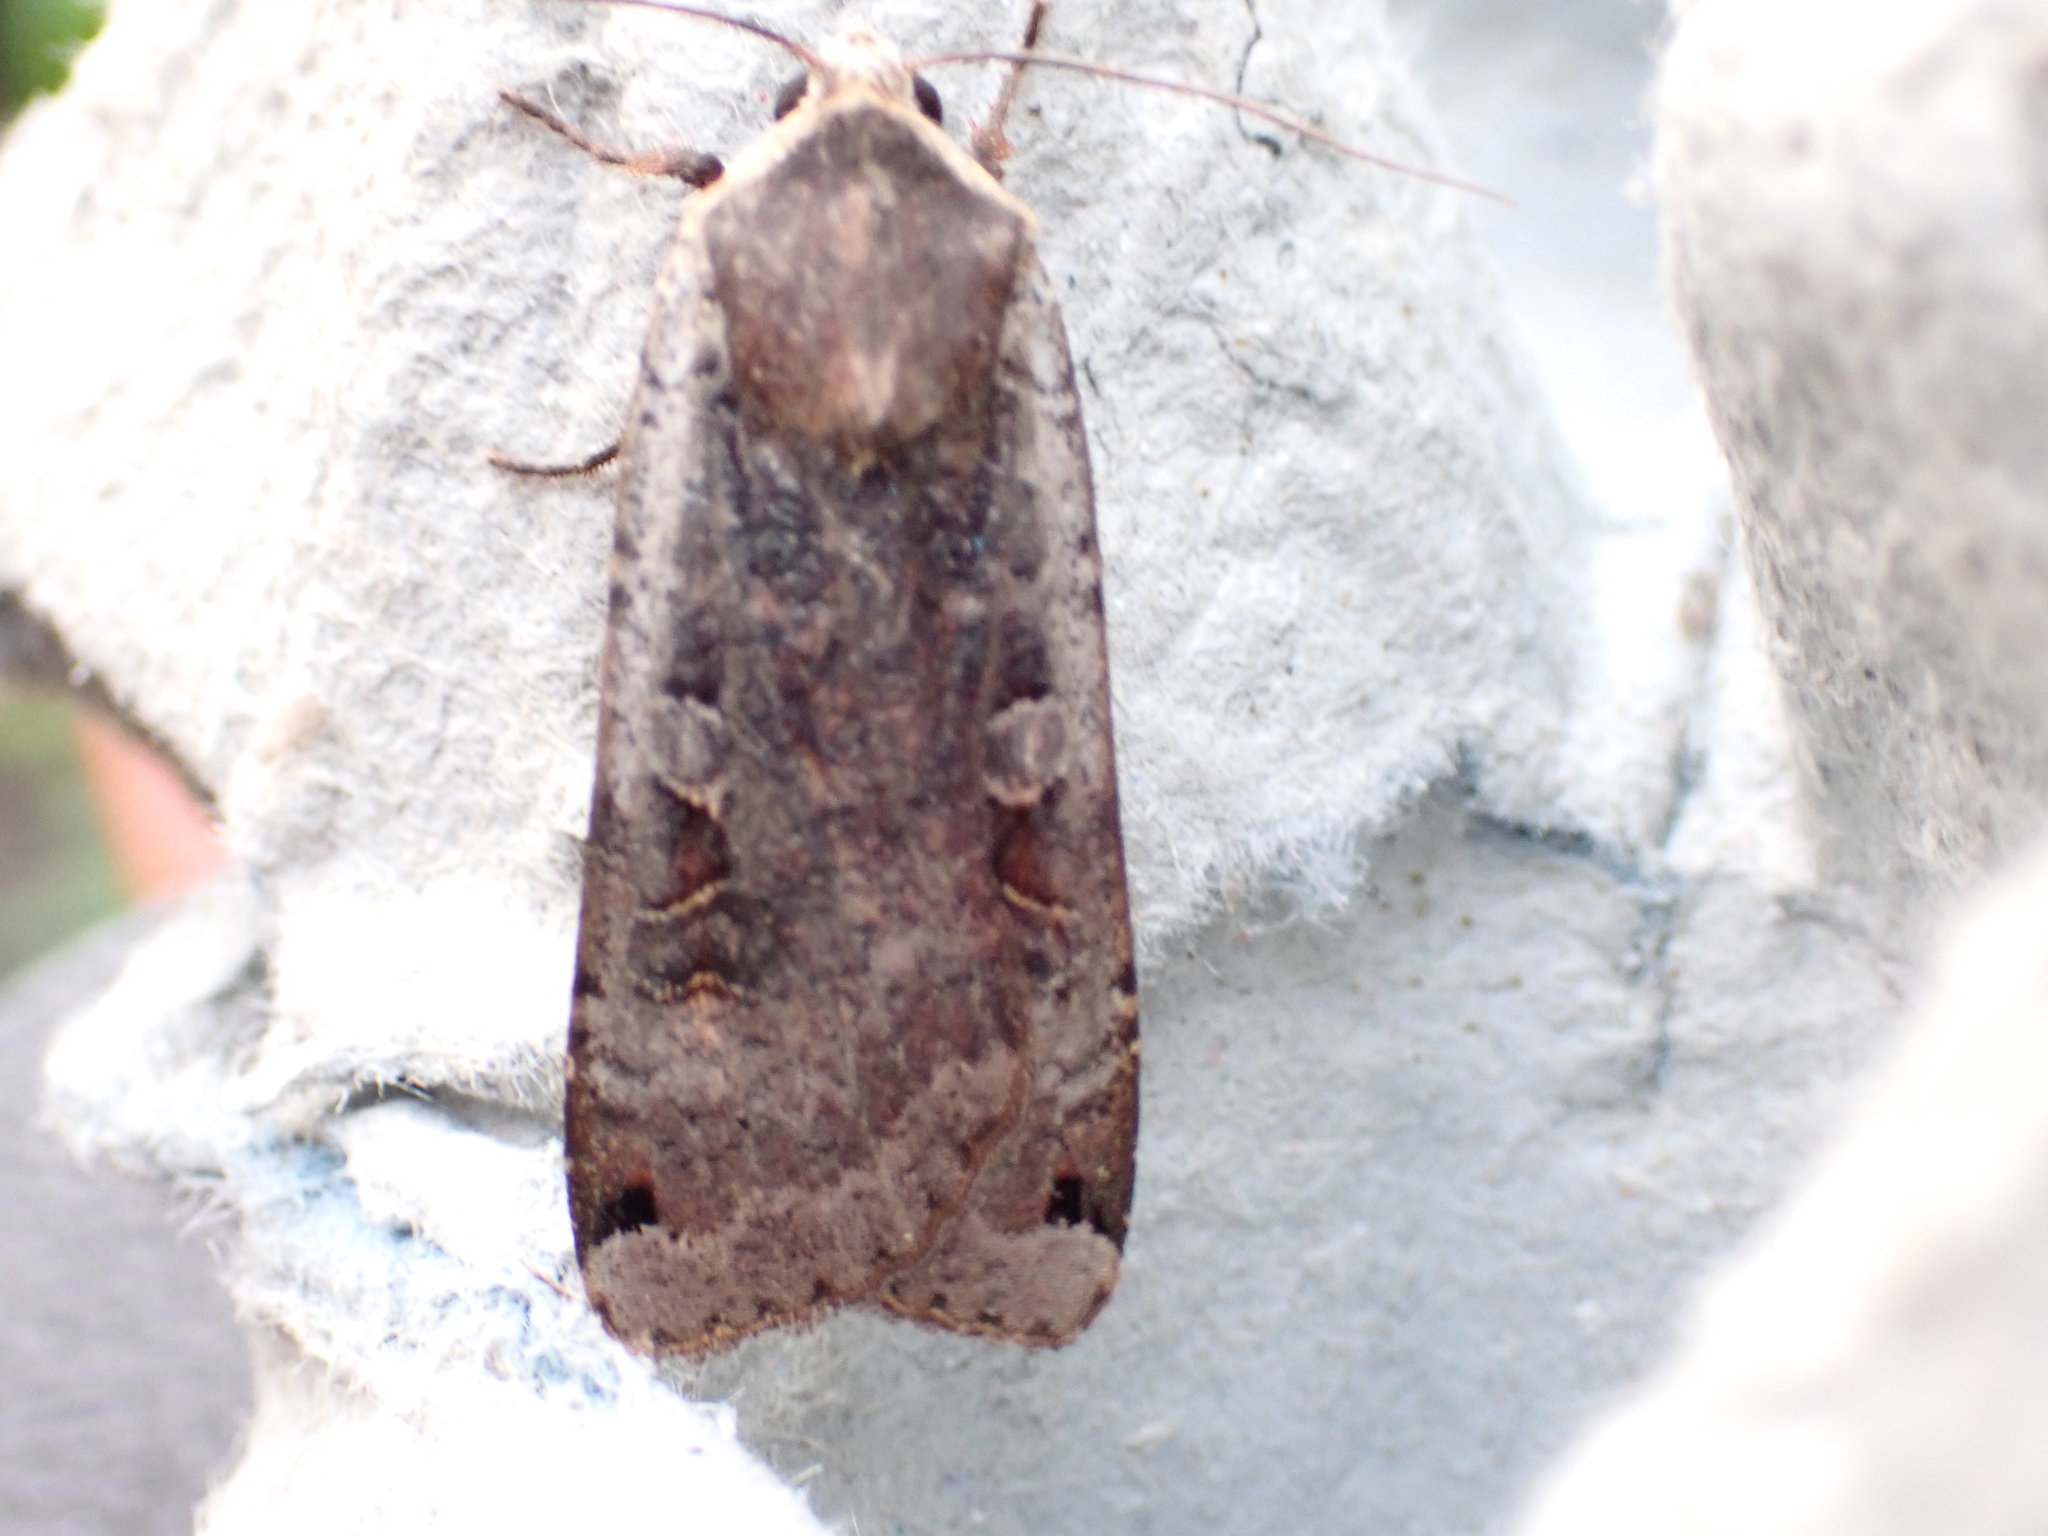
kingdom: Animalia
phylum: Arthropoda
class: Insecta
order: Lepidoptera
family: Noctuidae
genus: Noctua
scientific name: Noctua pronuba
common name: Large yellow underwing
